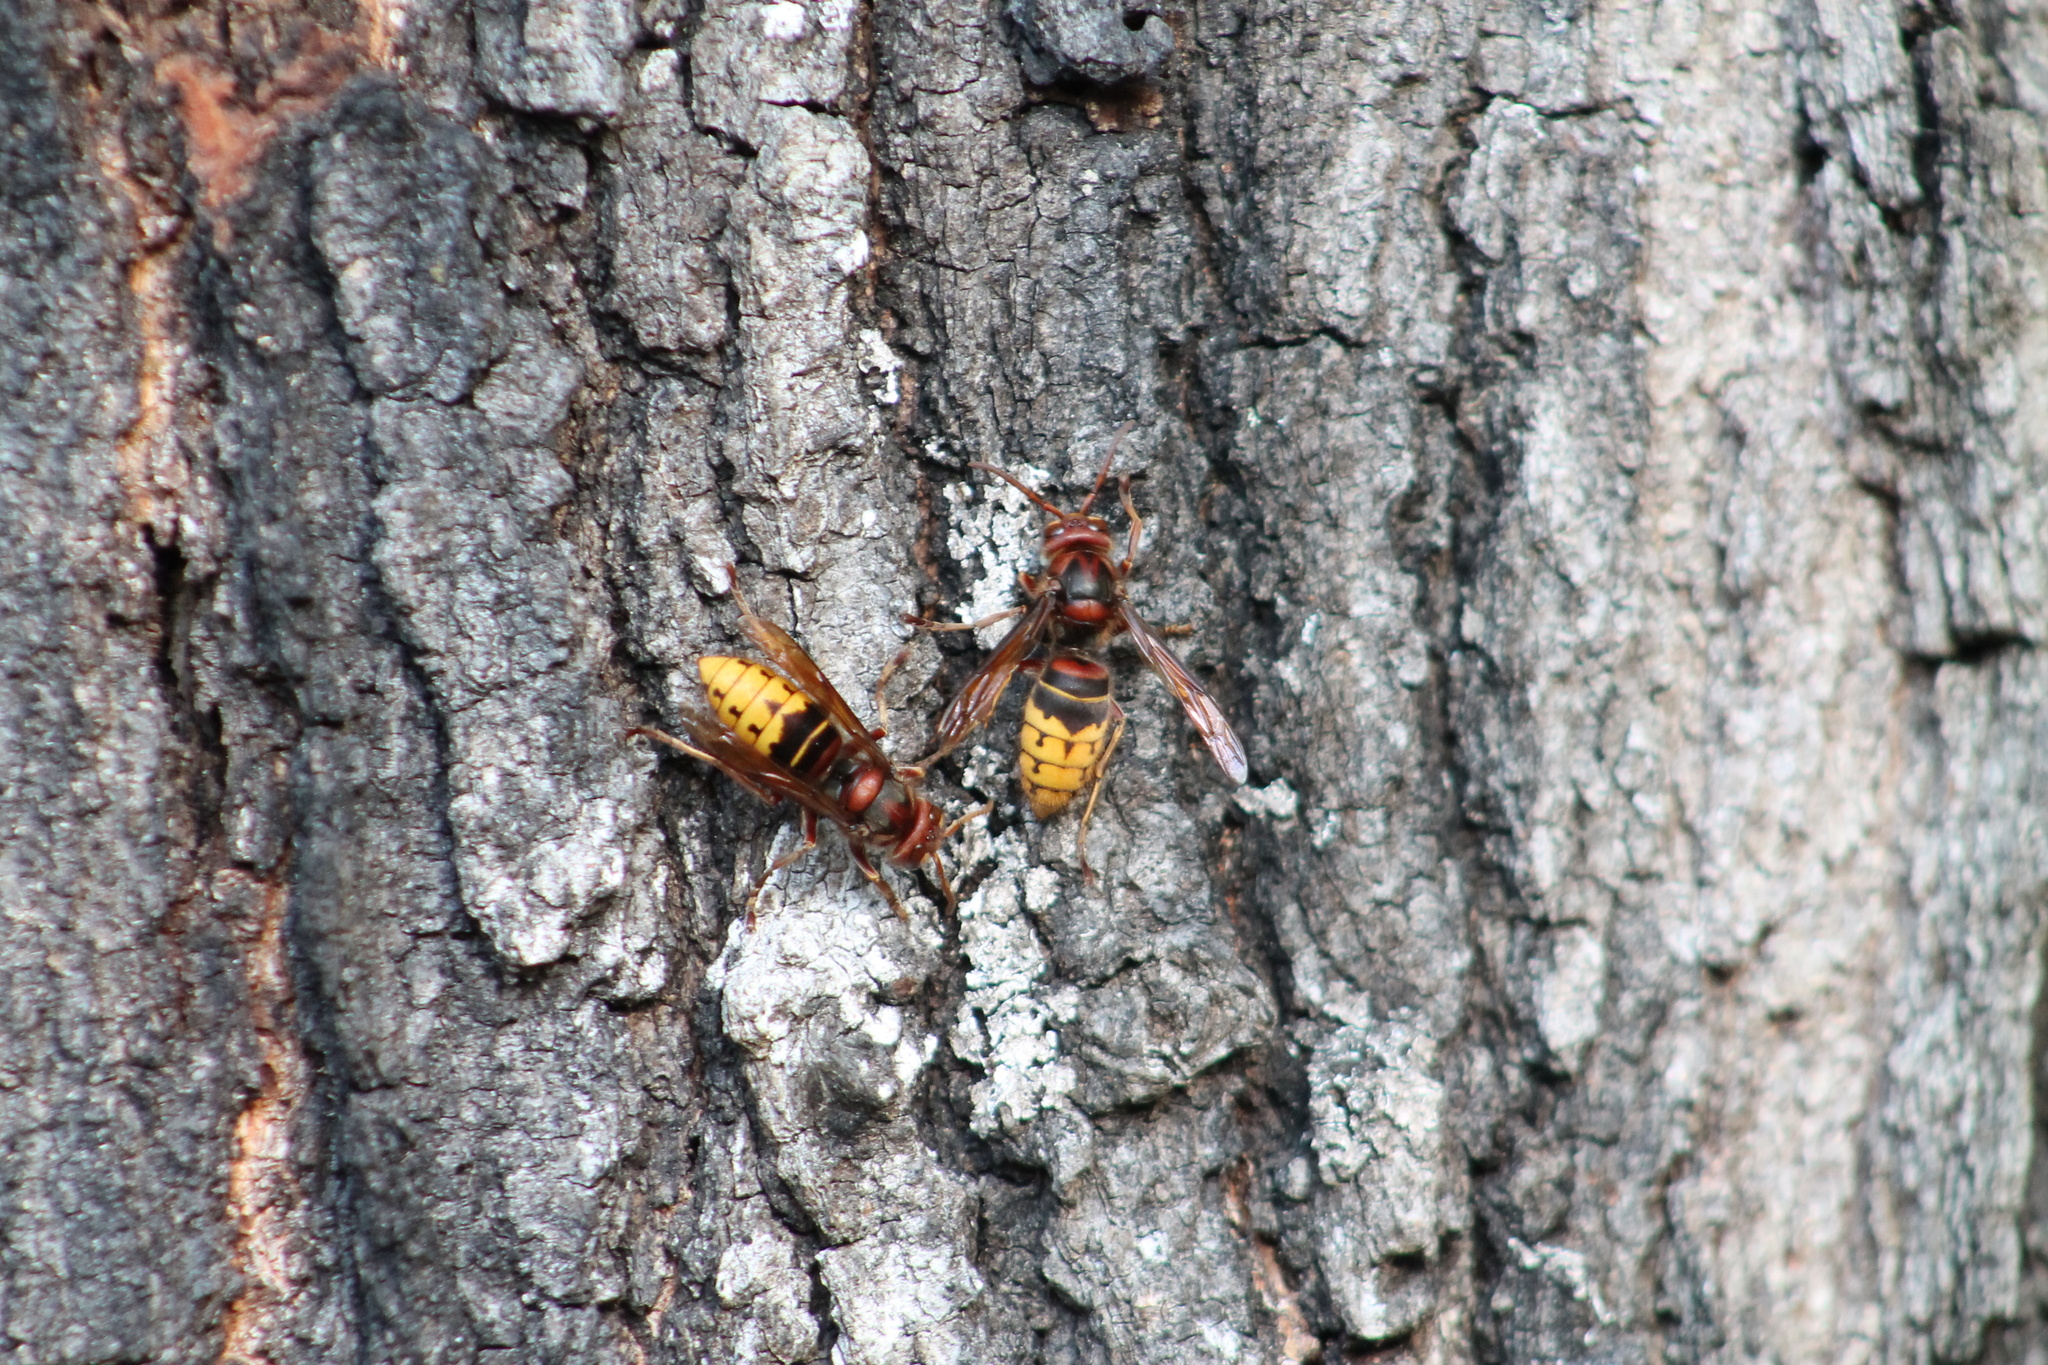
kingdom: Animalia
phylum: Arthropoda
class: Insecta
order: Hymenoptera
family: Vespidae
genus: Vespa
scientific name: Vespa crabro
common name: Hornet
